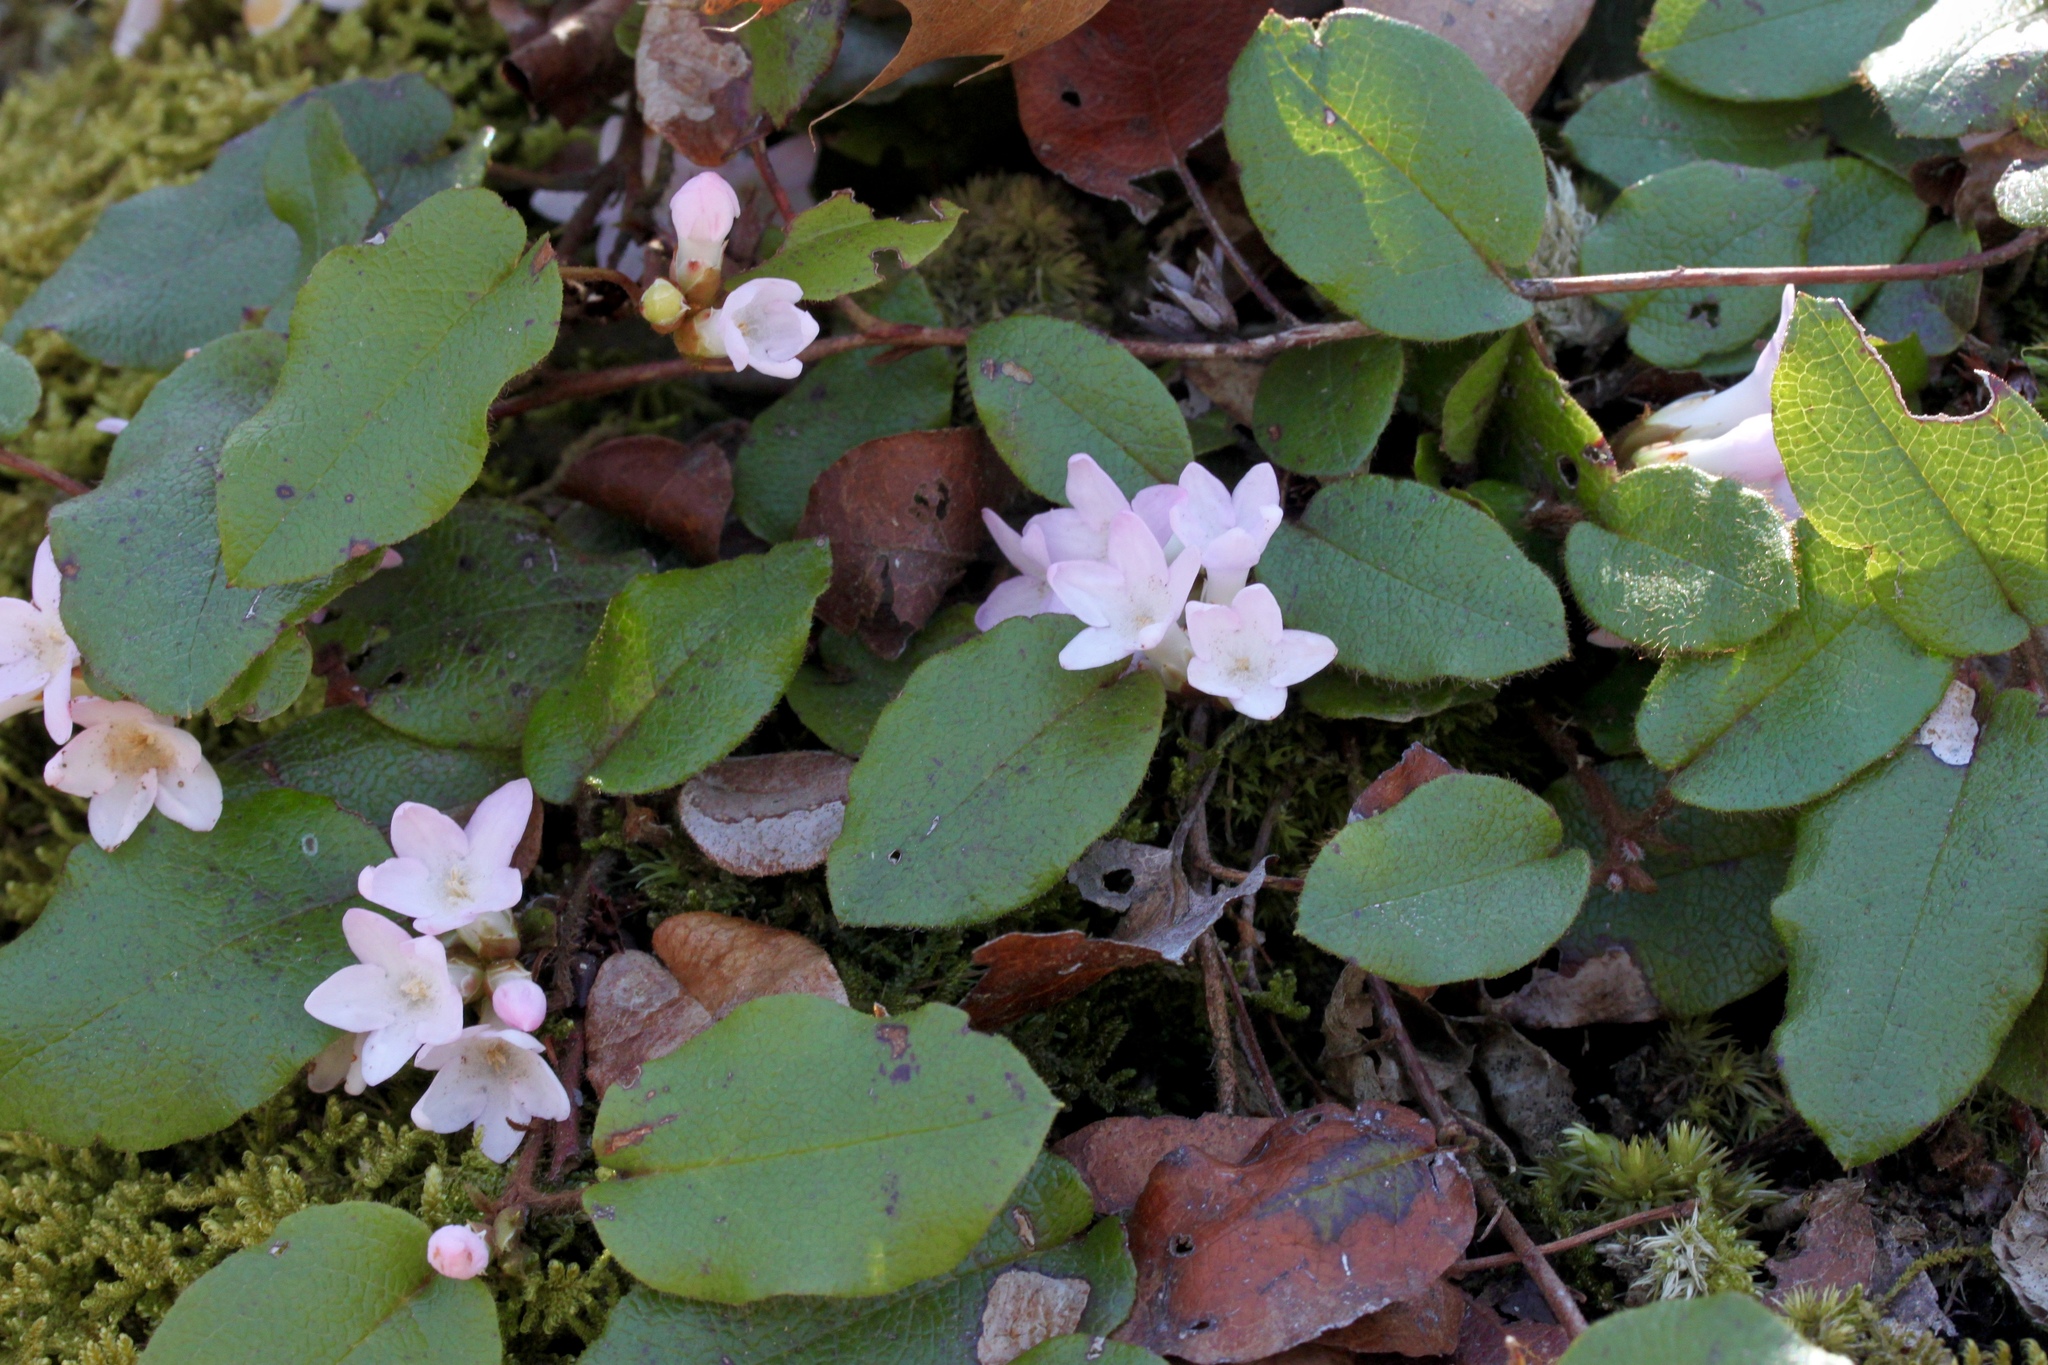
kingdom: Plantae
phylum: Tracheophyta
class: Magnoliopsida
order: Ericales
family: Ericaceae
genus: Epigaea
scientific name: Epigaea repens
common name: Gravelroot
